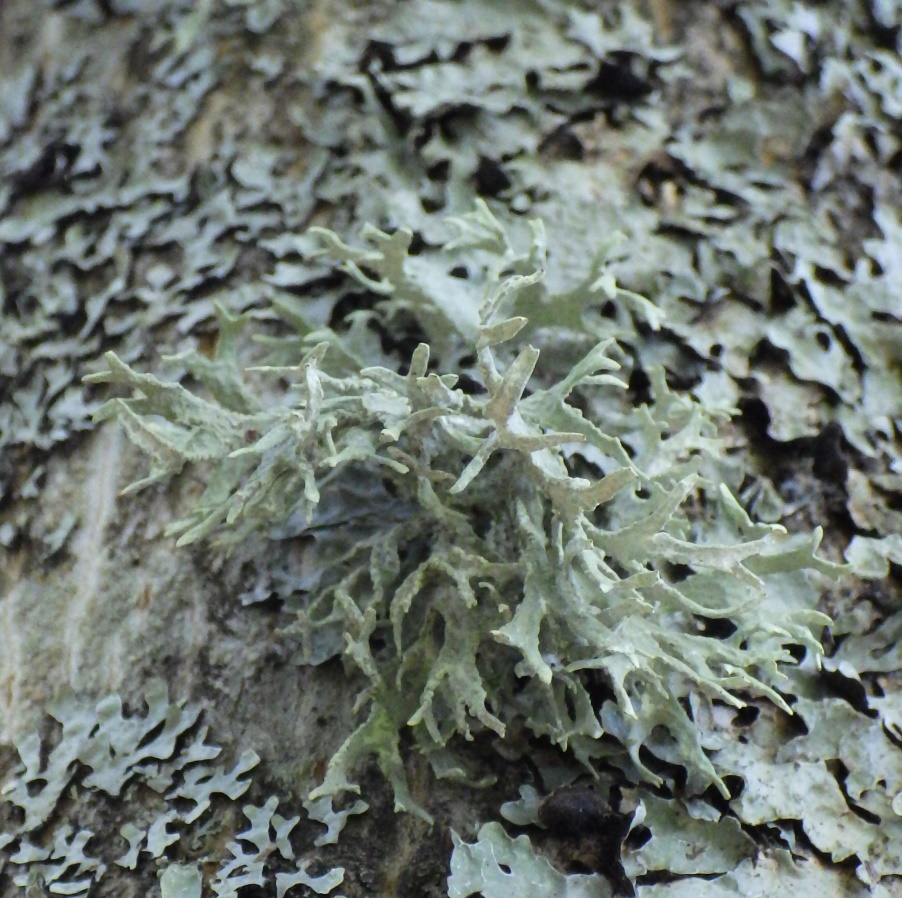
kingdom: Fungi
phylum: Ascomycota
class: Lecanoromycetes
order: Lecanorales
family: Parmeliaceae
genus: Evernia
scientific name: Evernia prunastri
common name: Oak moss
